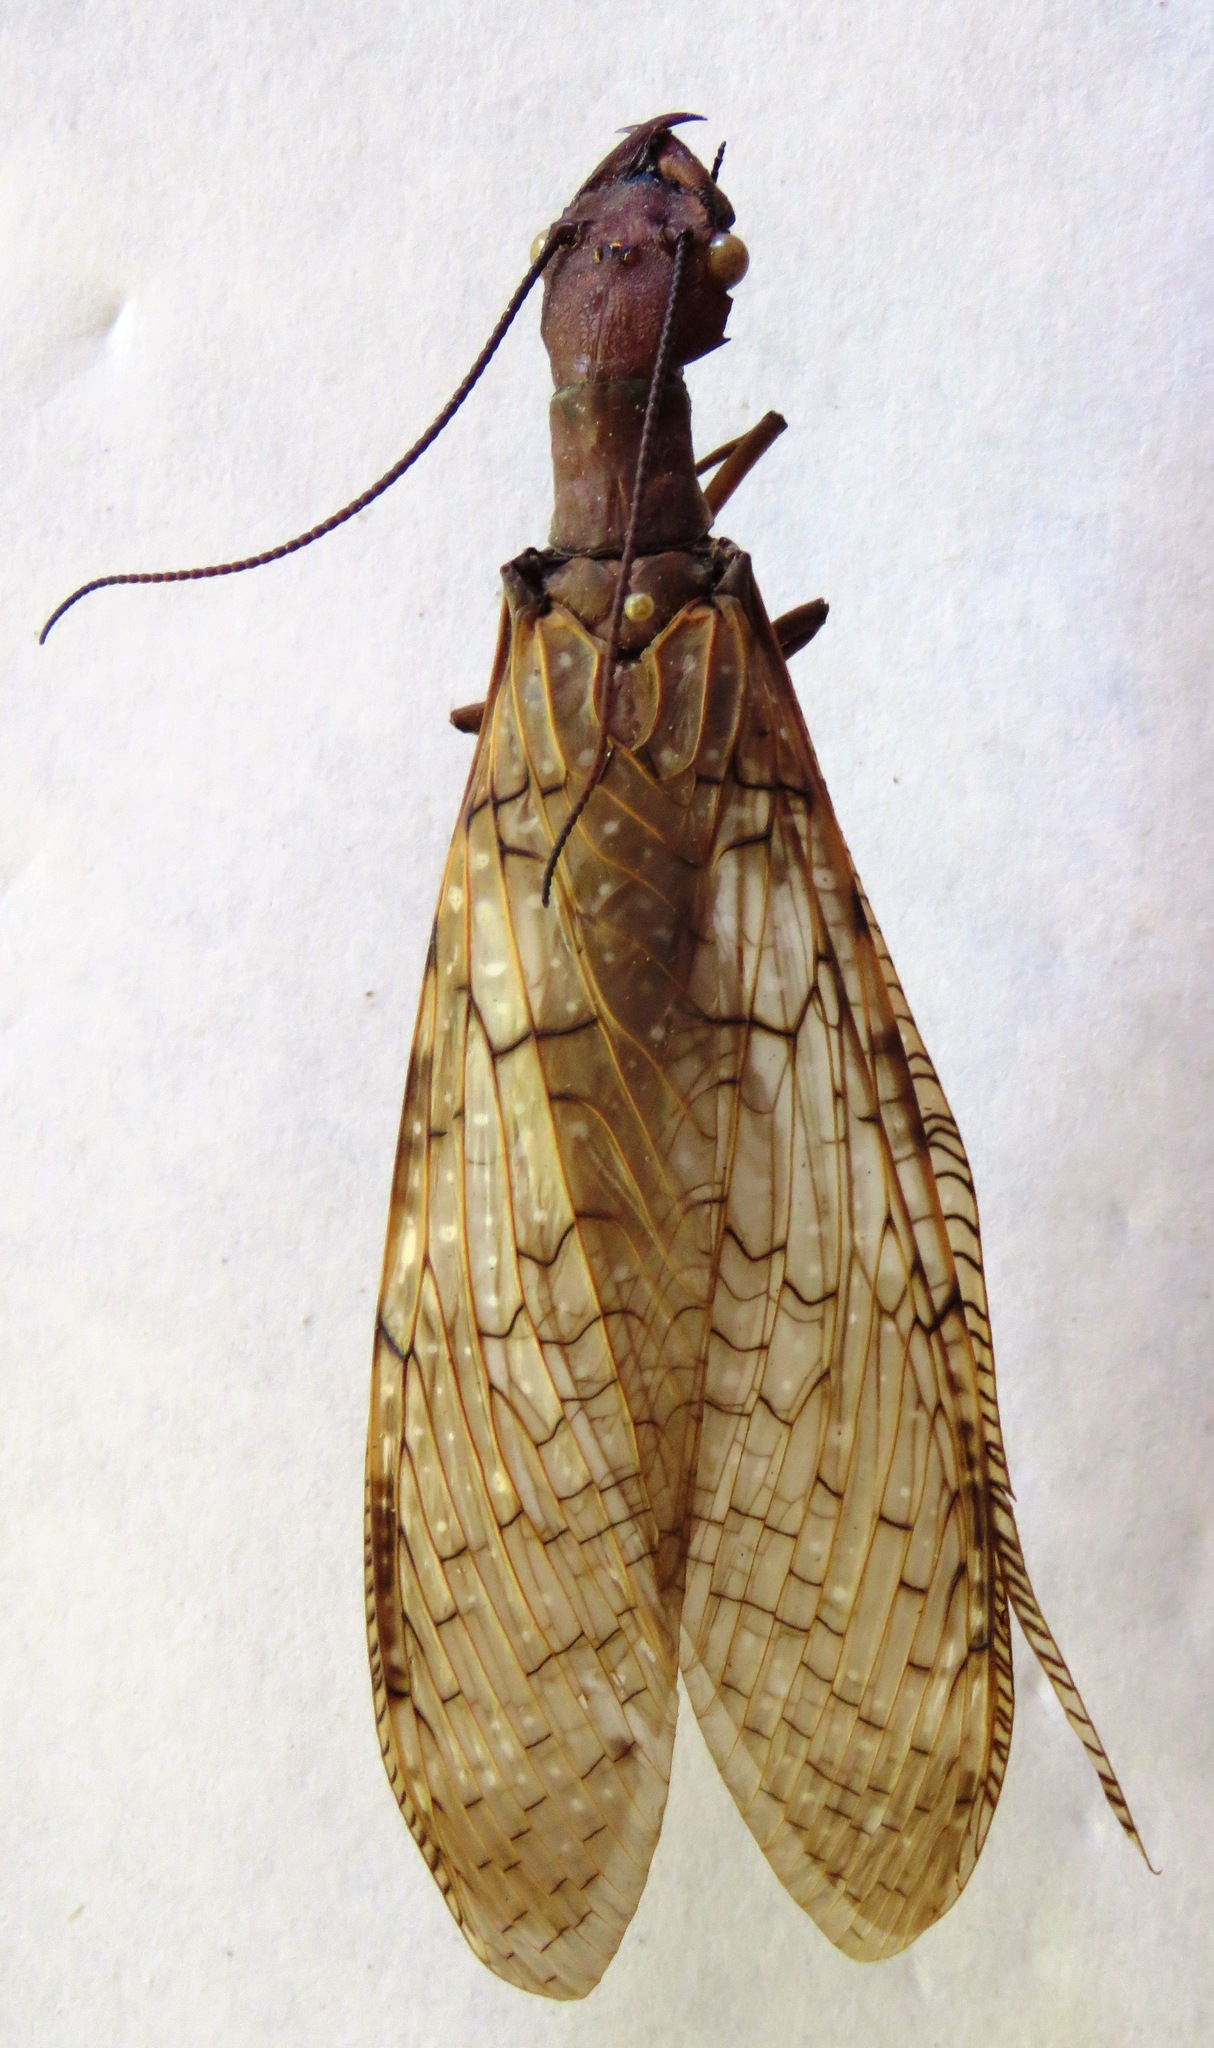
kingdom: Animalia
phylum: Arthropoda
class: Insecta
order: Megaloptera
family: Corydalidae
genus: Corydalus
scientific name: Corydalus magnus
